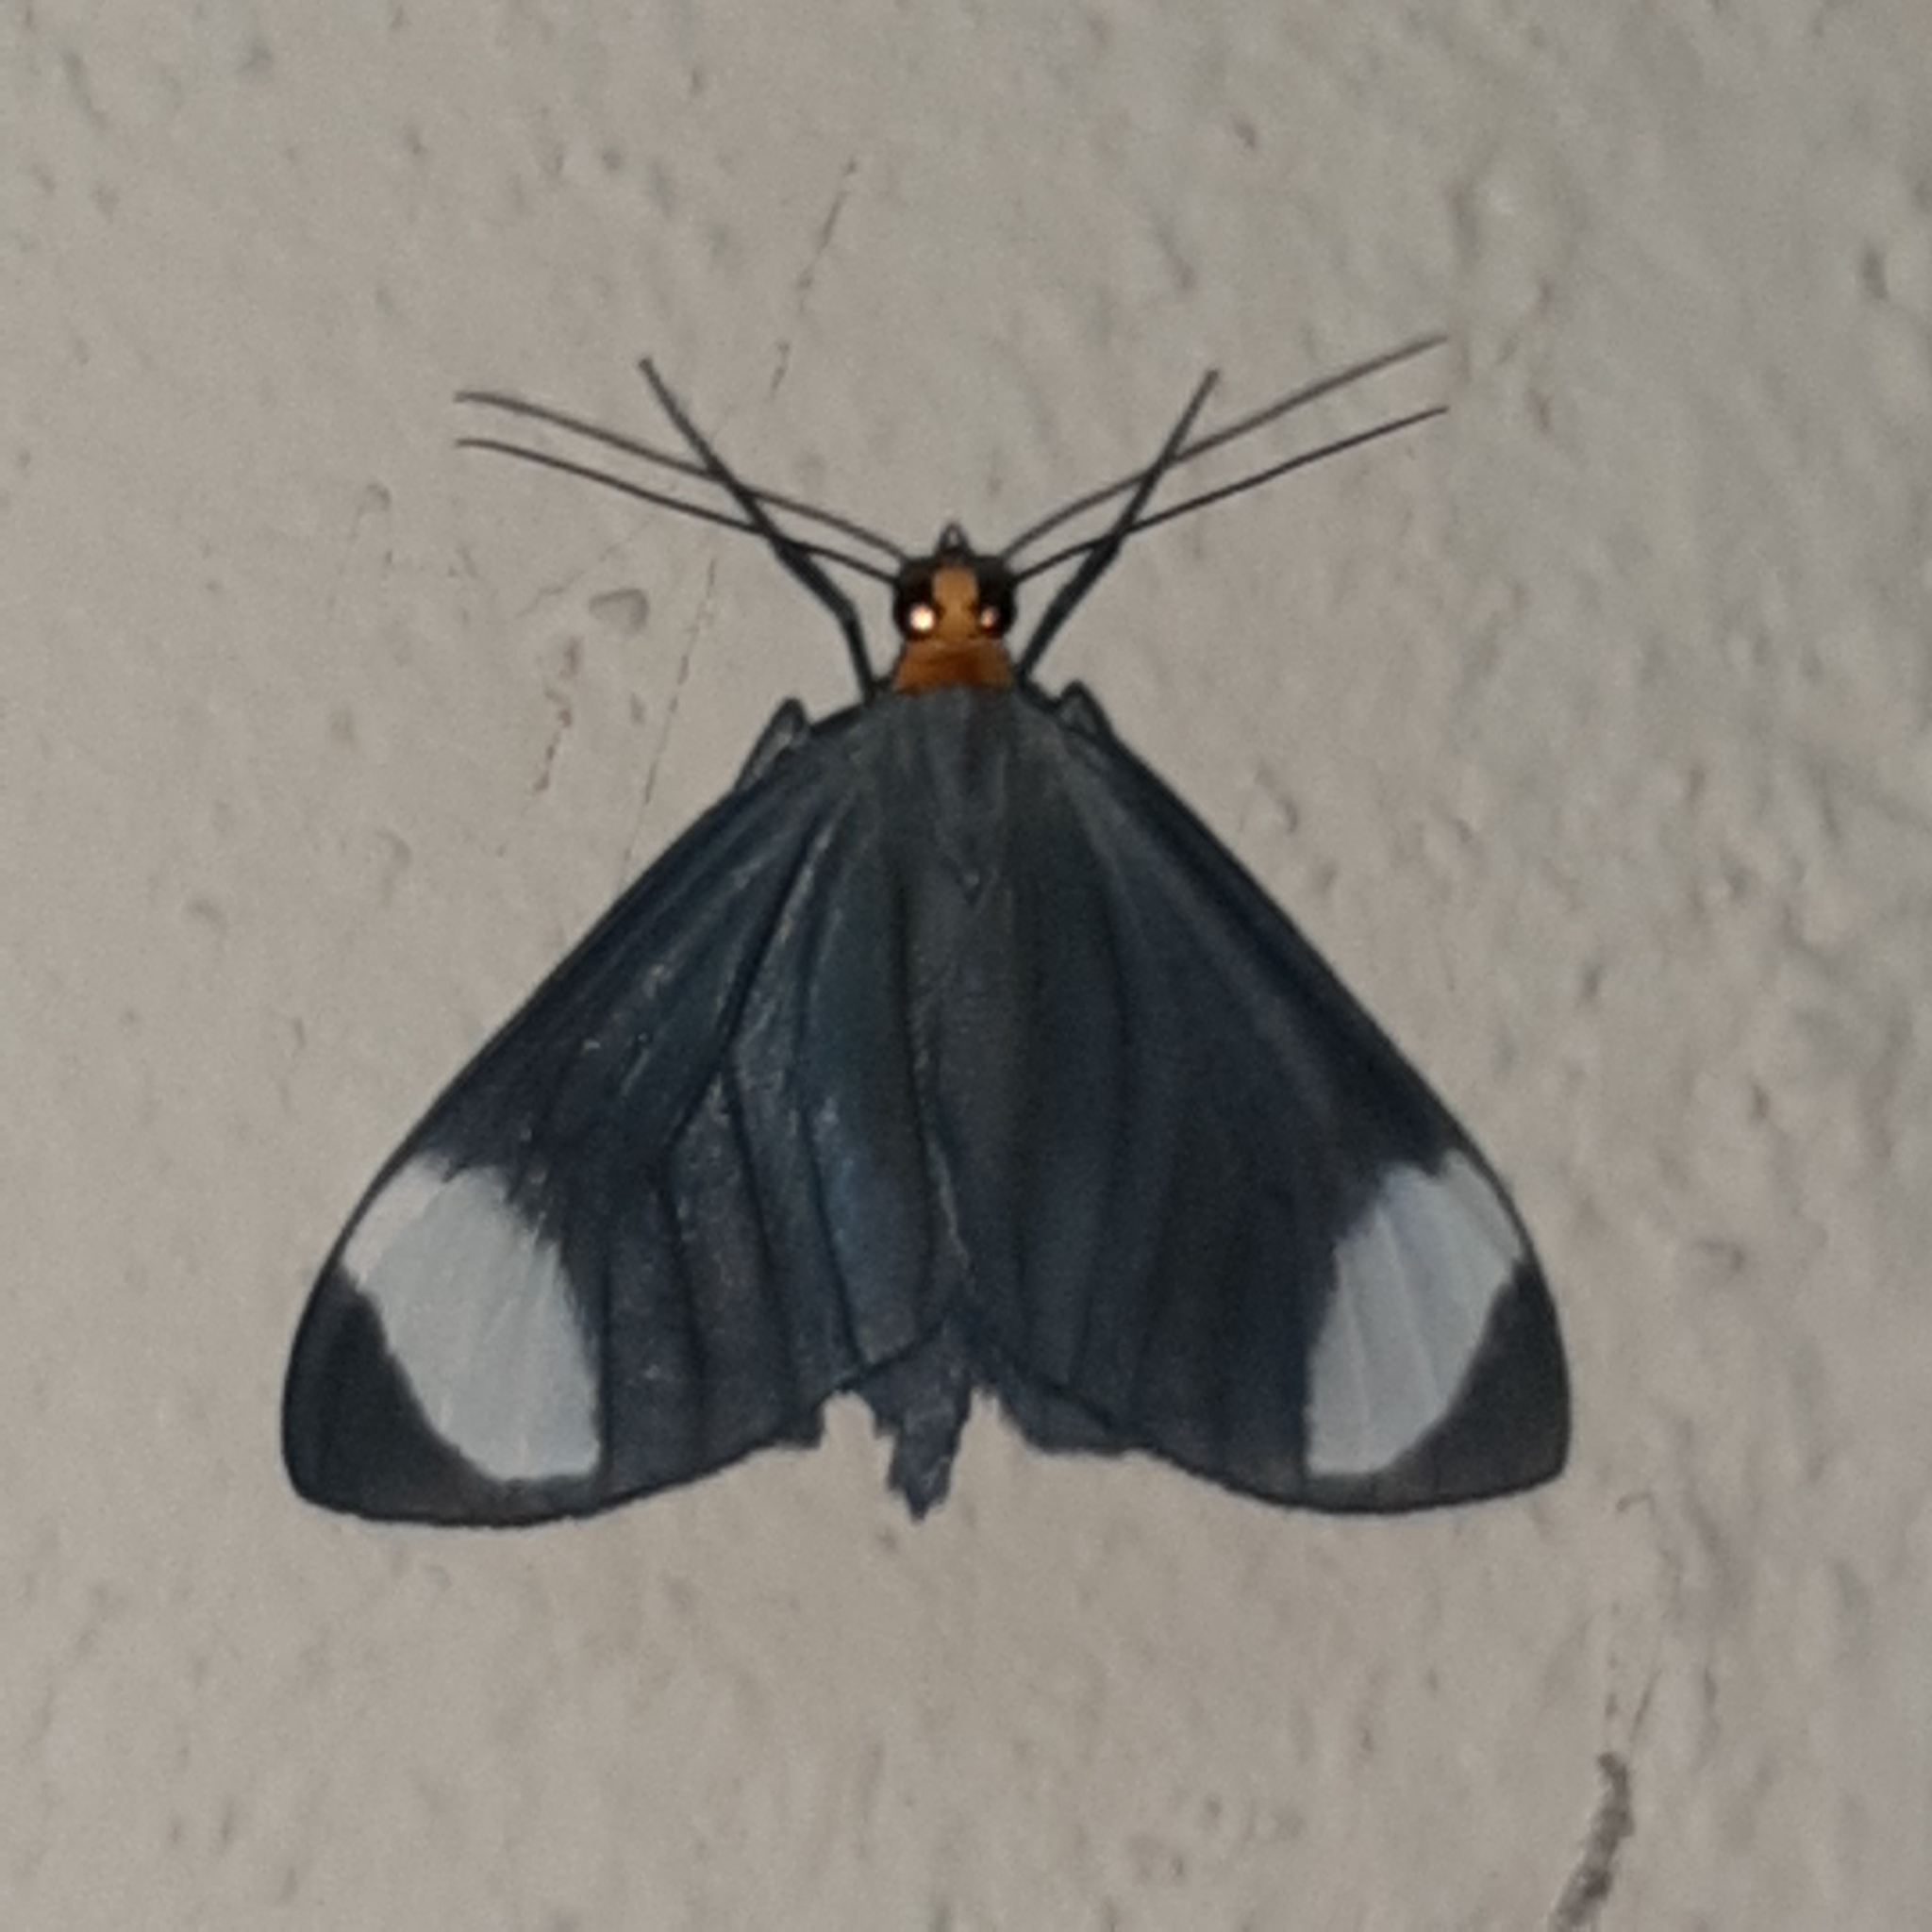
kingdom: Animalia
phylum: Arthropoda
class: Insecta
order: Lepidoptera
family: Geometridae
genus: Crocypus
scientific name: Crocypus perlucidaria
